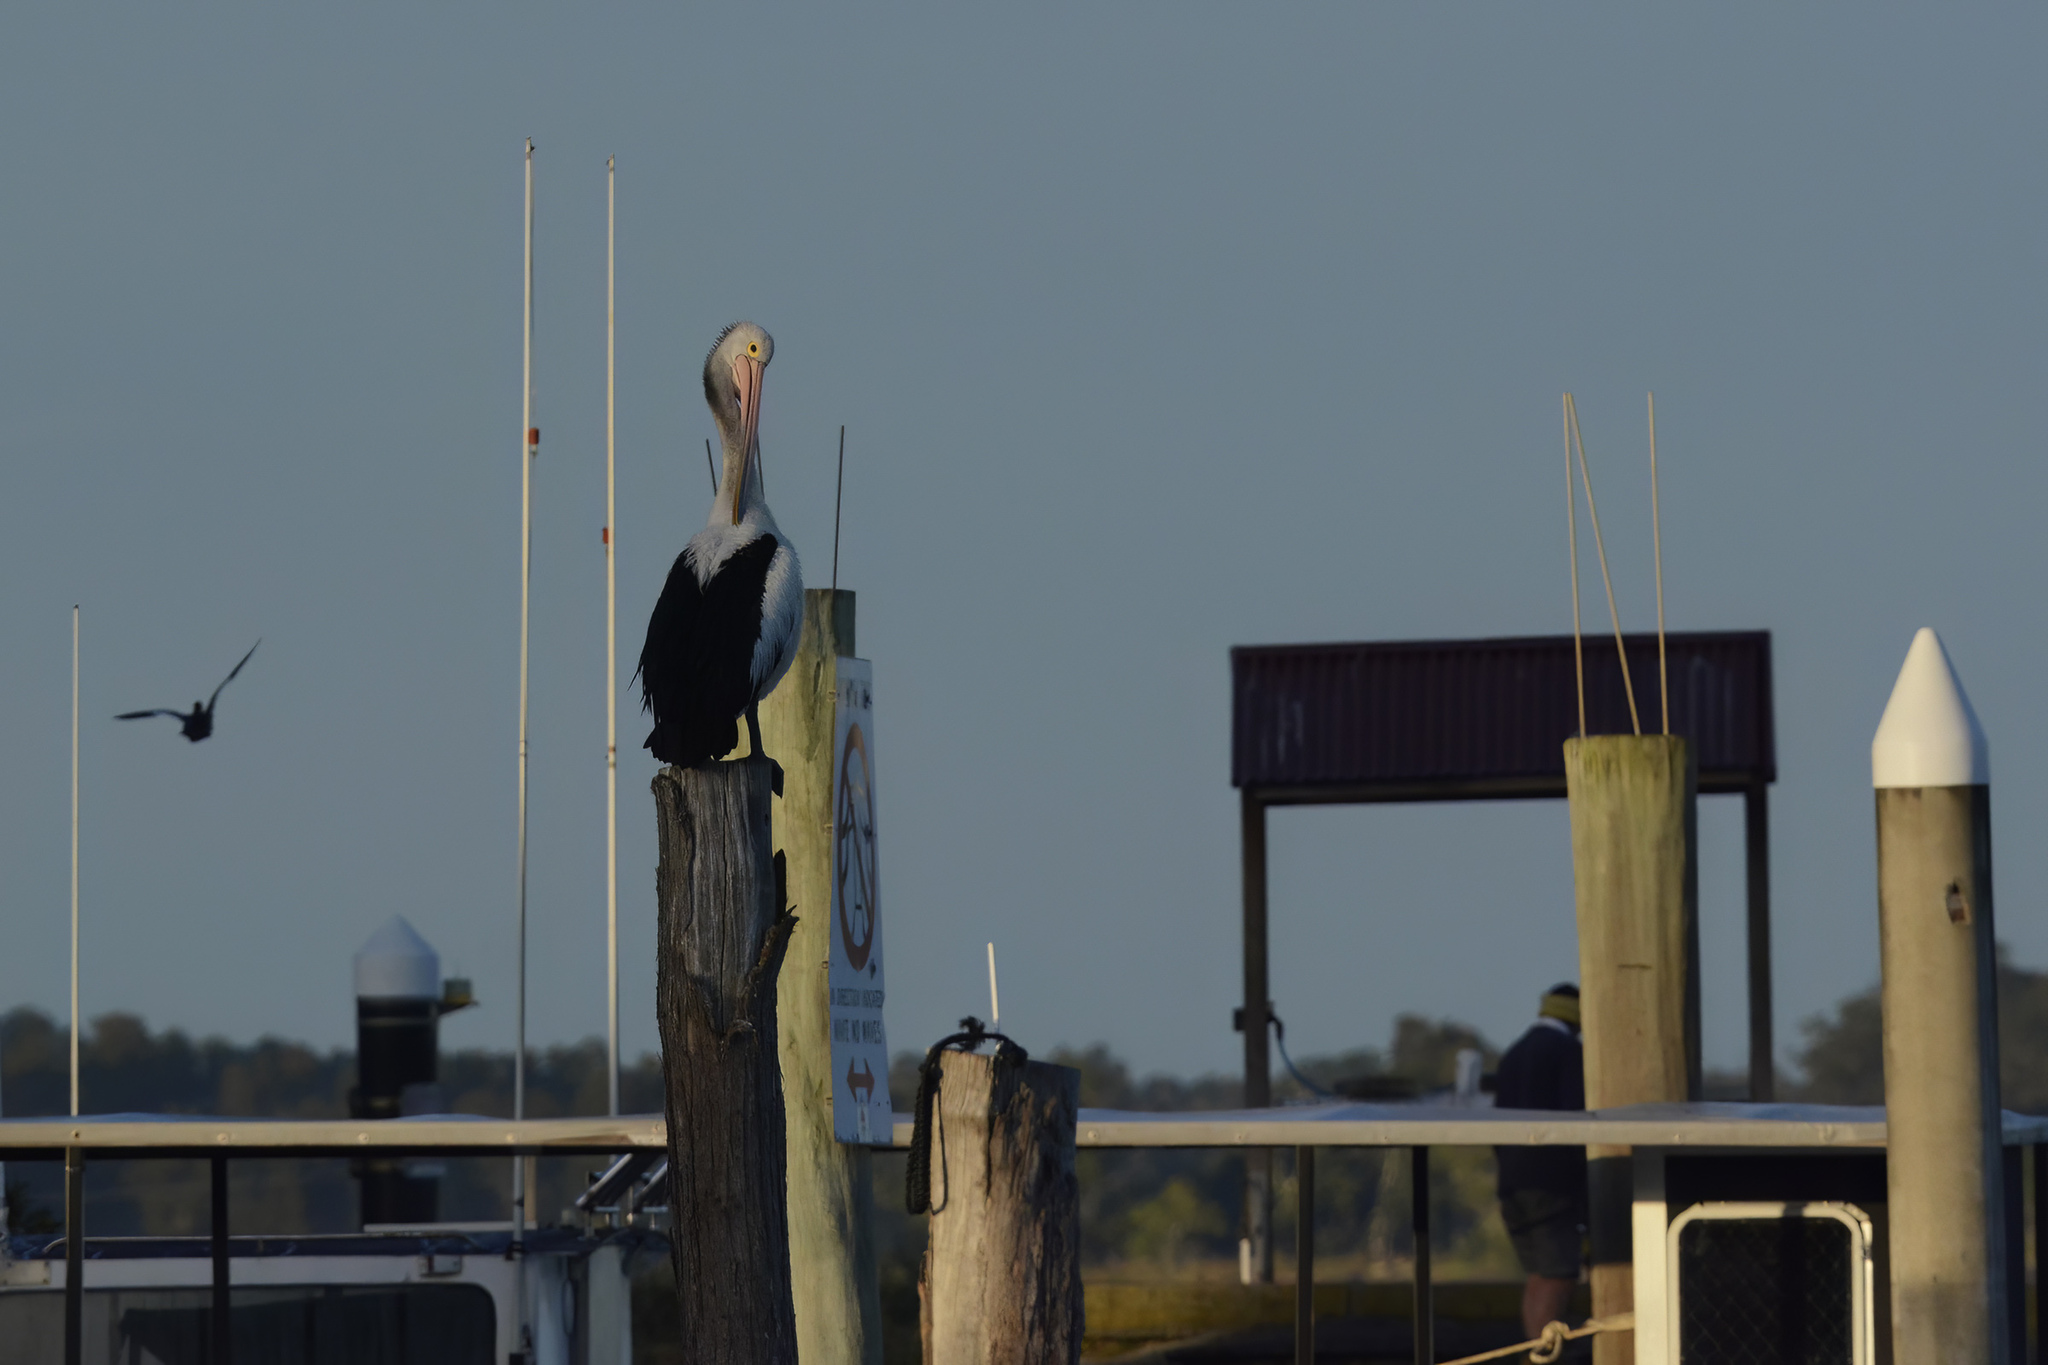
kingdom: Animalia
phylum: Chordata
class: Aves
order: Pelecaniformes
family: Pelecanidae
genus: Pelecanus
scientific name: Pelecanus conspicillatus
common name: Australian pelican
